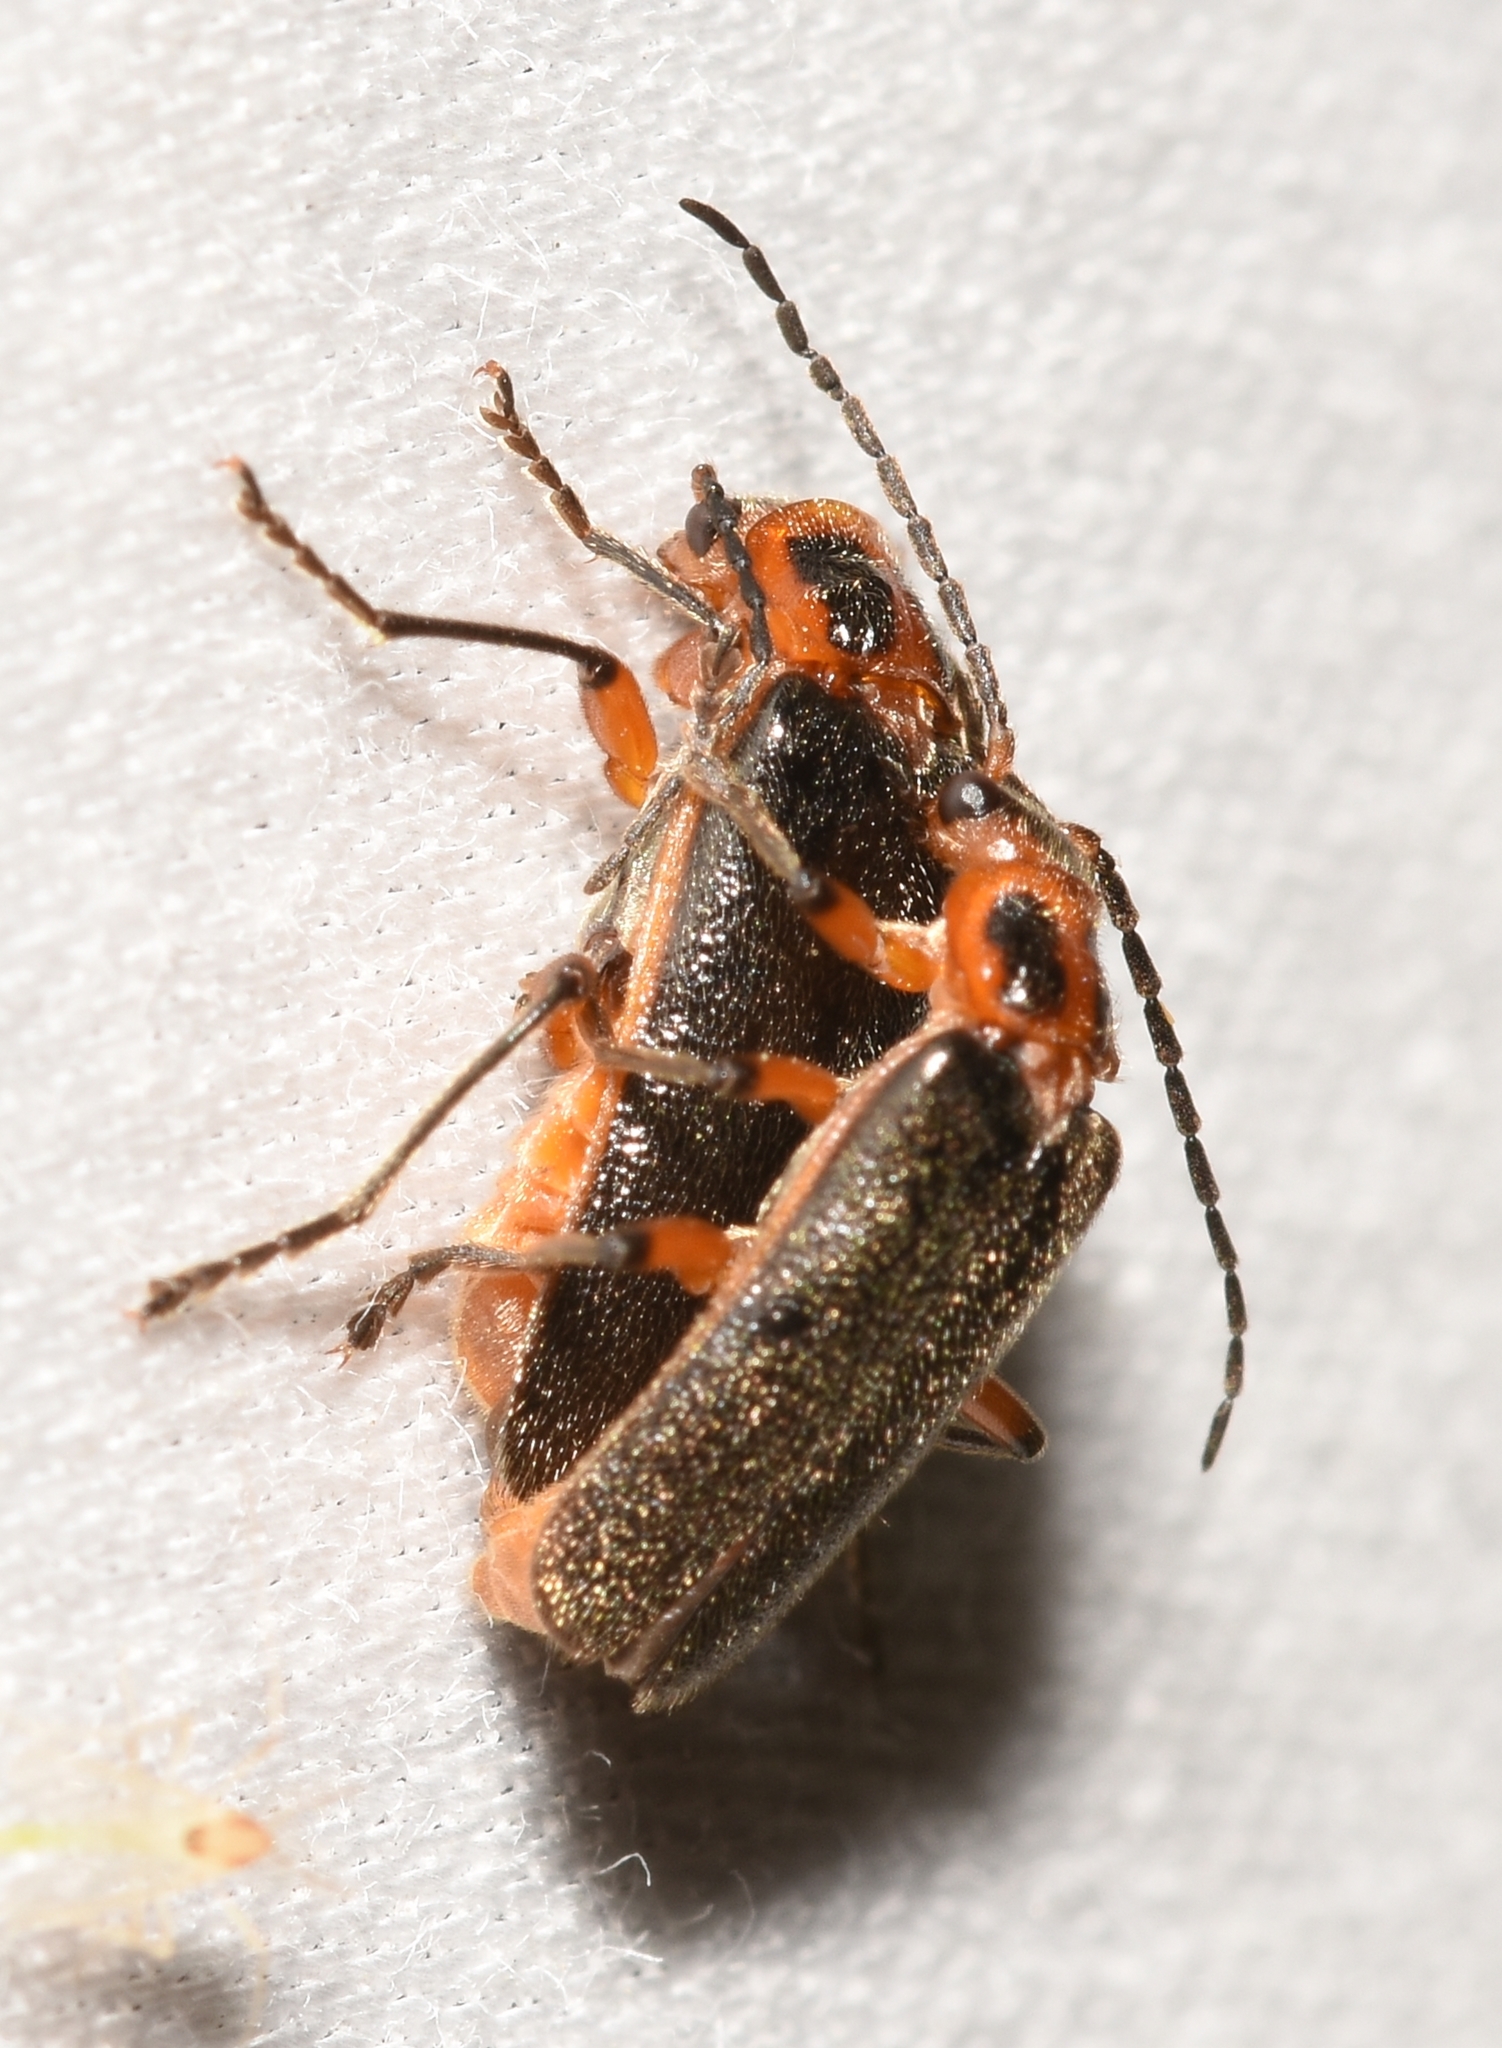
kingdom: Animalia
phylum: Arthropoda
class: Insecta
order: Coleoptera
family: Cantharidae
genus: Atalantycha
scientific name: Atalantycha bilineata
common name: Two-lined leatherwing
